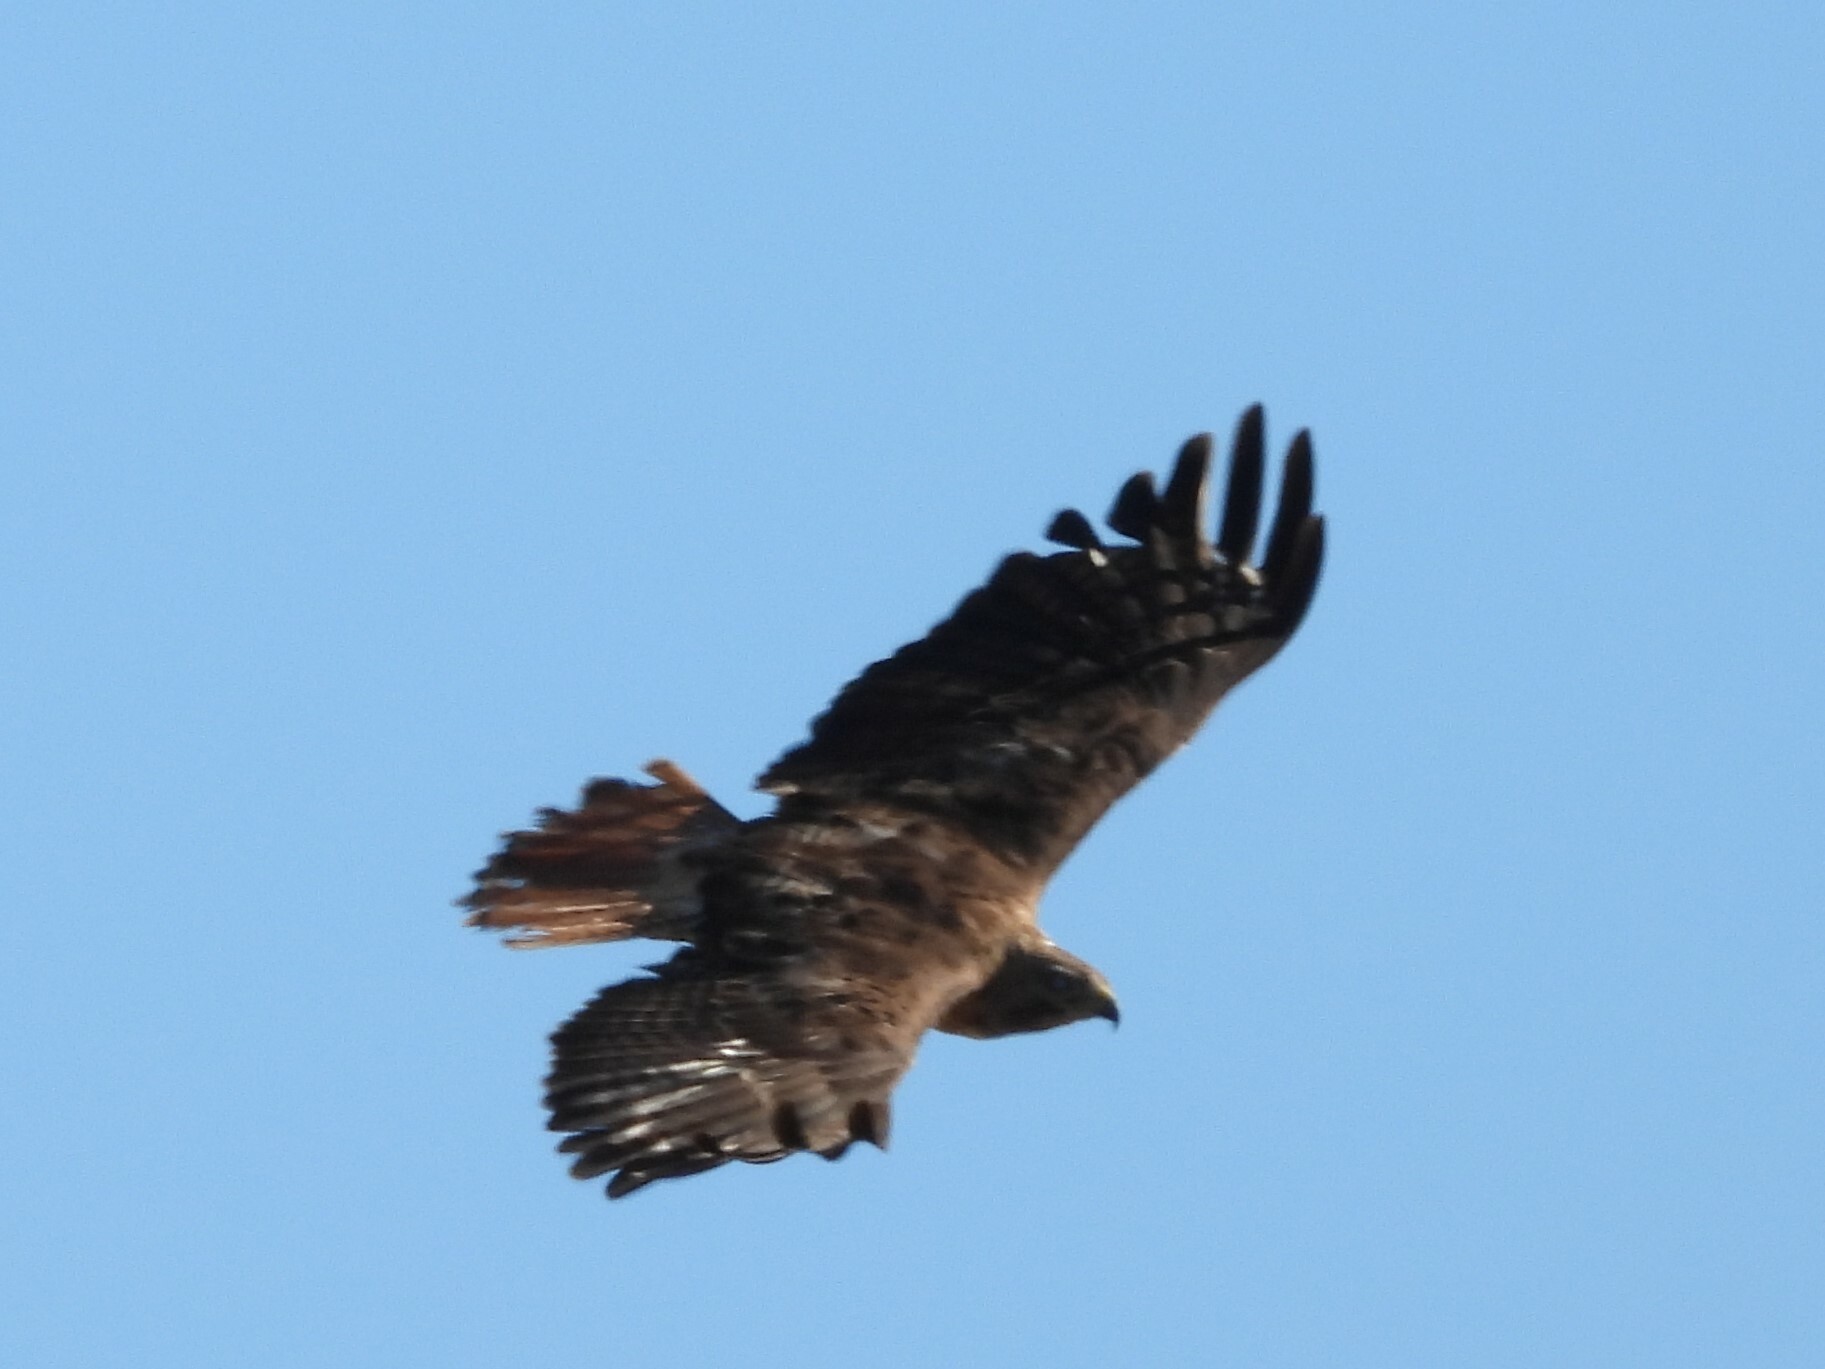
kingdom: Animalia
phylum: Chordata
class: Aves
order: Accipitriformes
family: Accipitridae
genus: Buteo
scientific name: Buteo jamaicensis
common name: Red-tailed hawk
